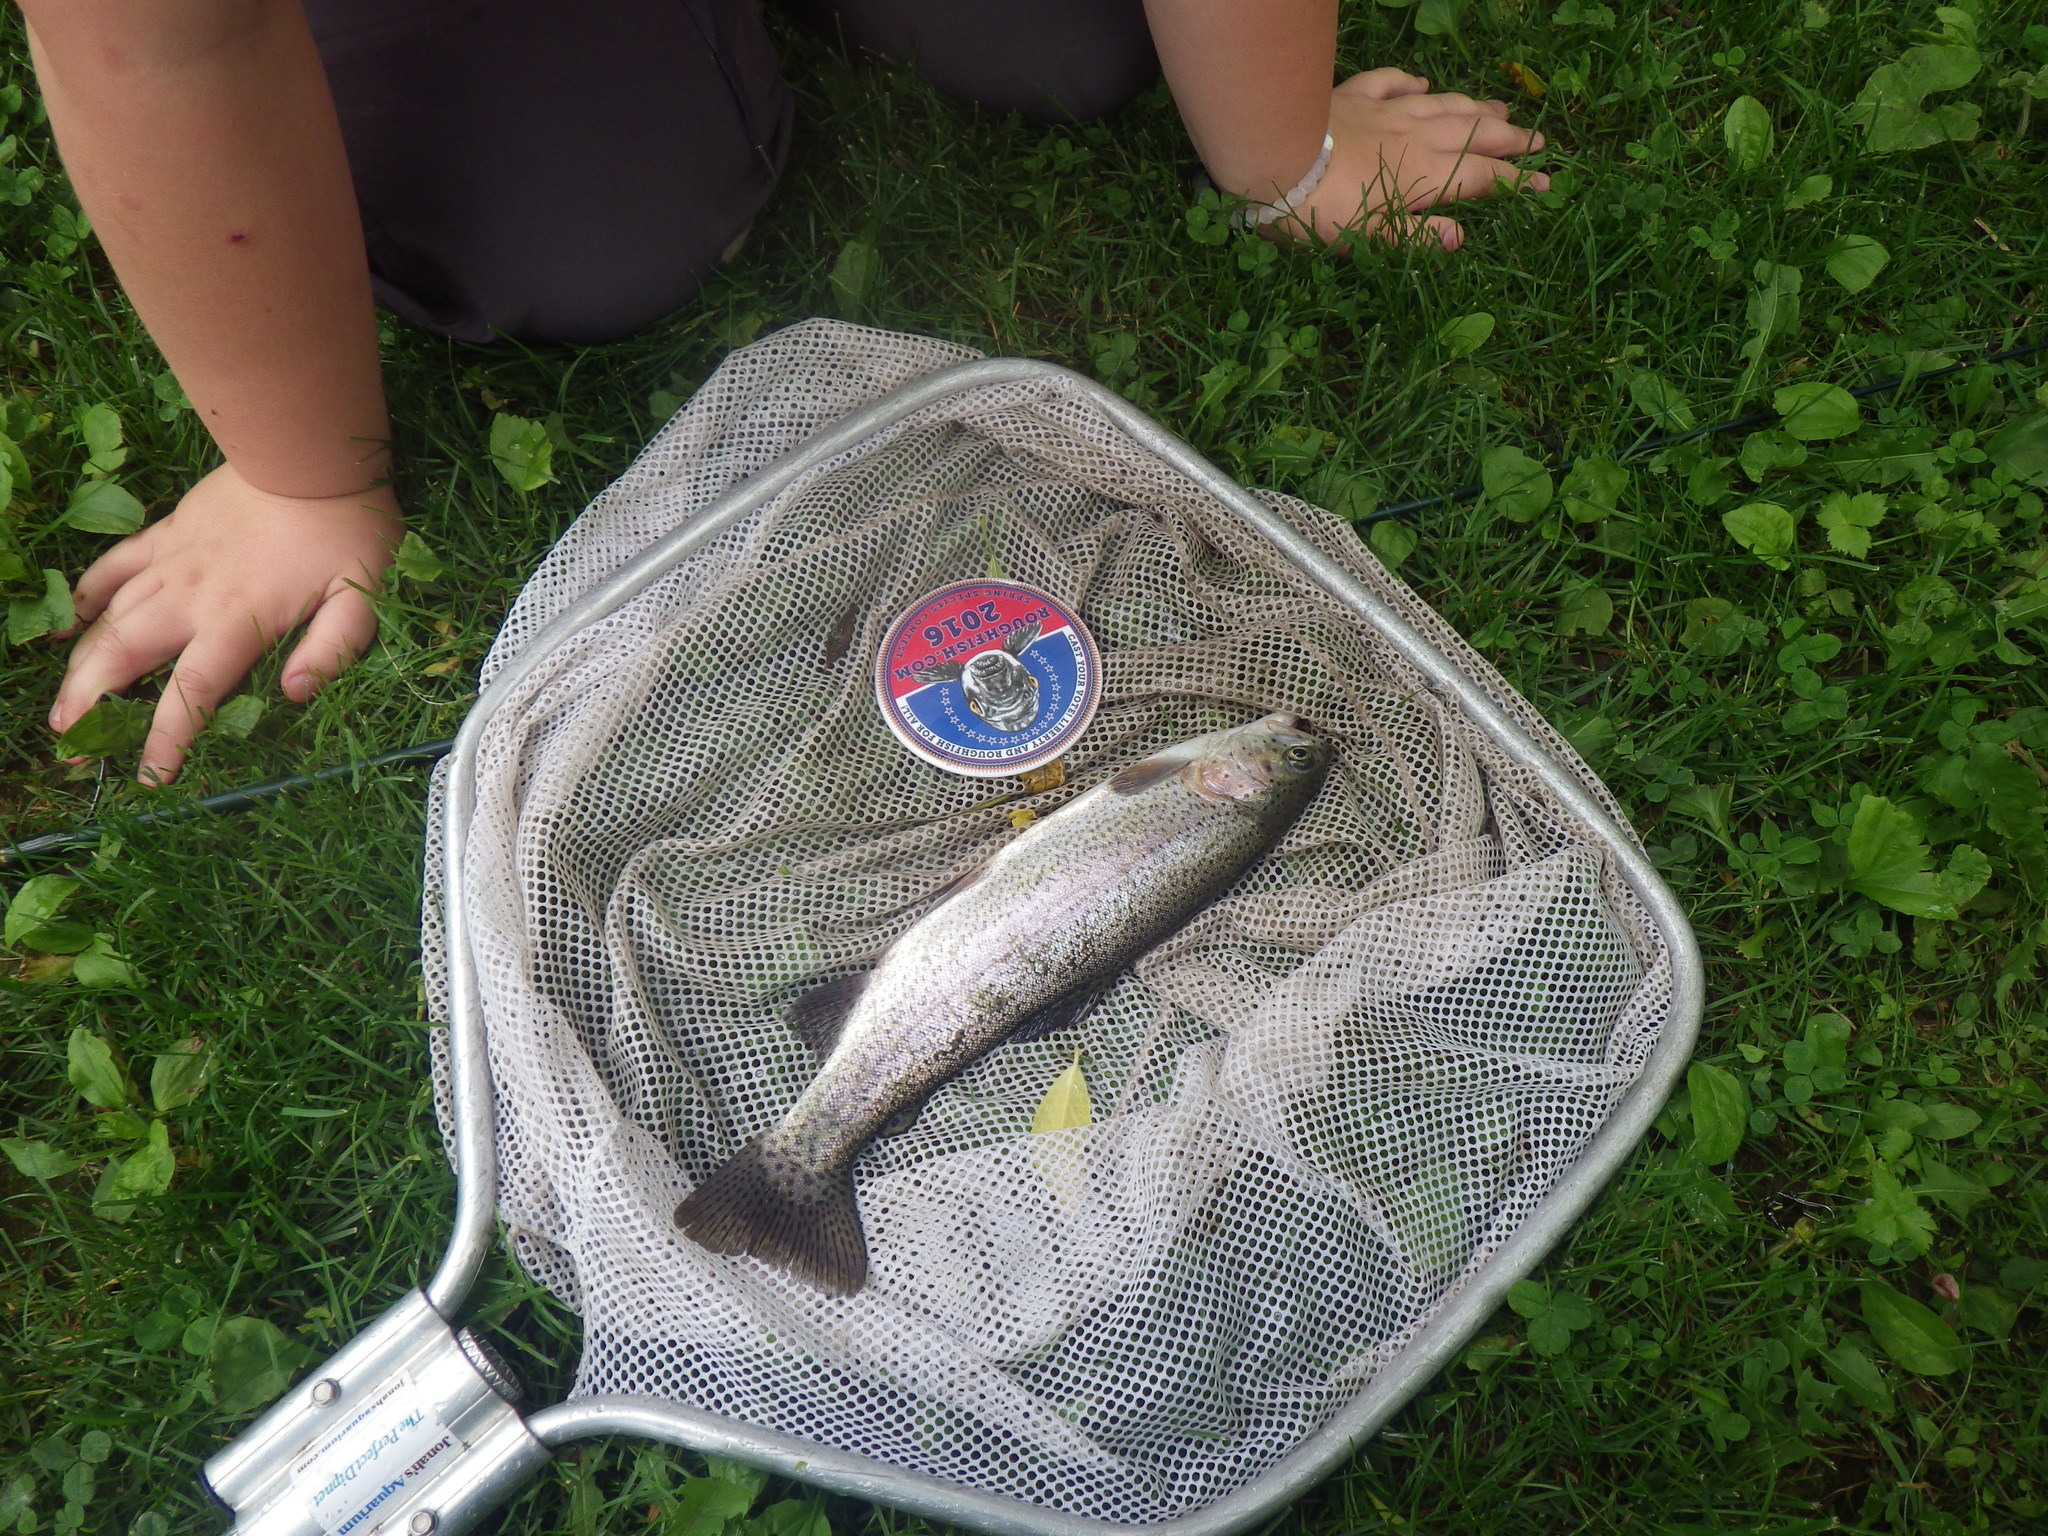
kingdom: Animalia
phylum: Chordata
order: Salmoniformes
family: Salmonidae
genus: Oncorhynchus
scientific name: Oncorhynchus mykiss
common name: Rainbow trout
